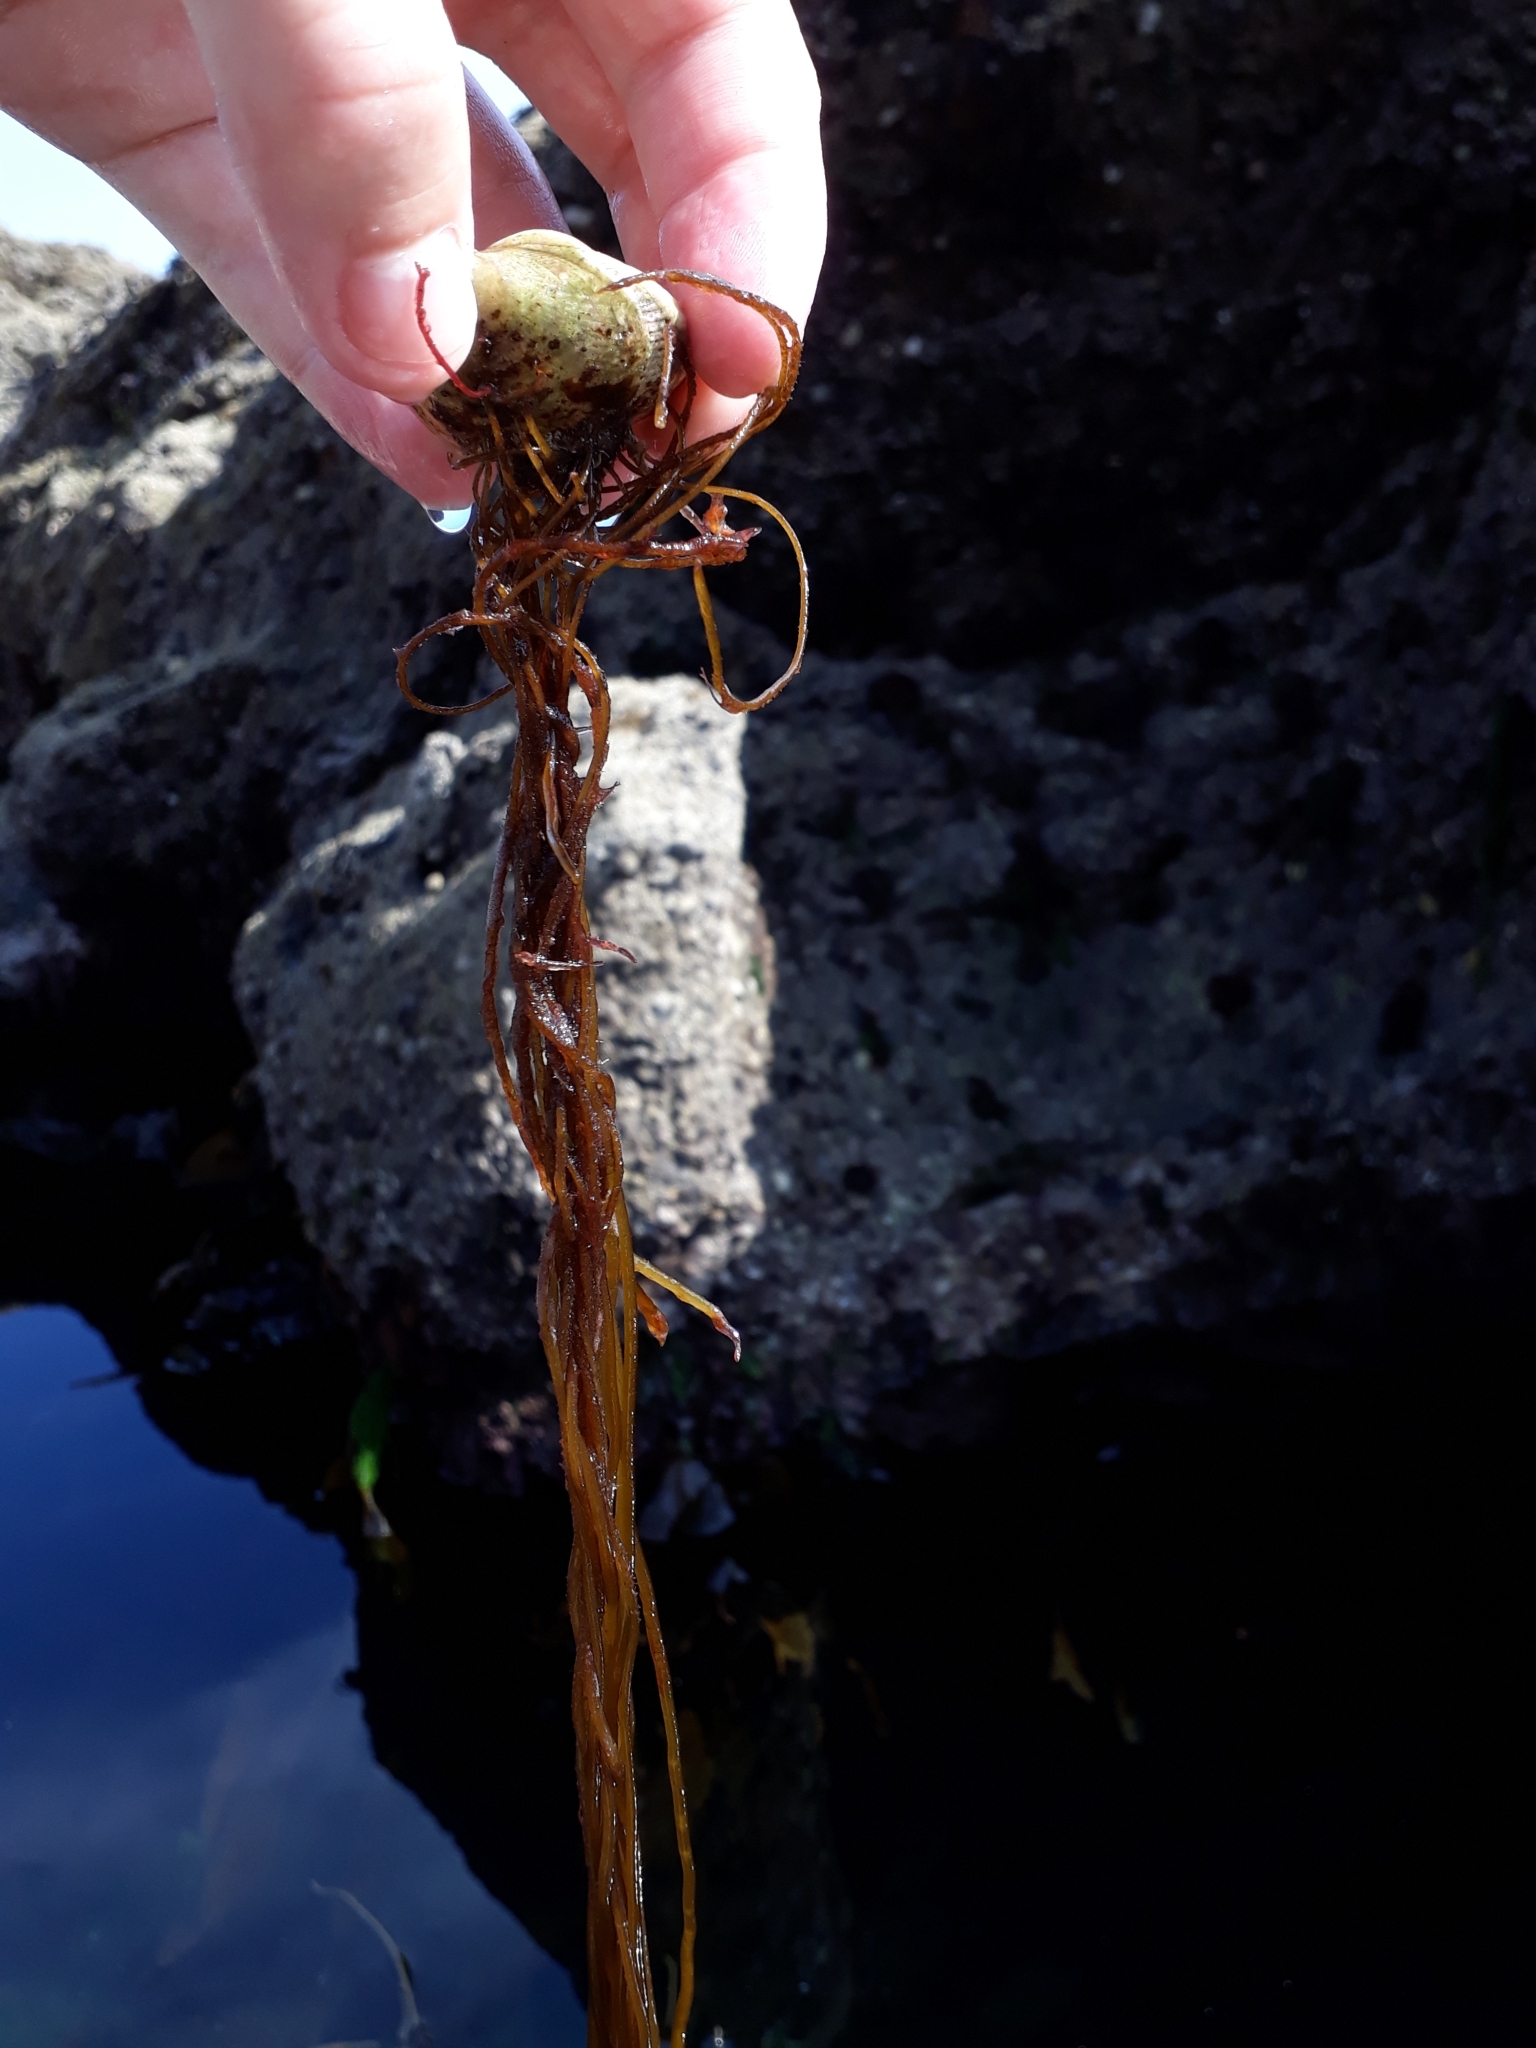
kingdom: Chromista
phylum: Ochrophyta
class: Phaeophyceae
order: Laminariales
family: Chordaceae
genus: Chorda
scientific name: Chorda filum
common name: Mermaid's tresses
